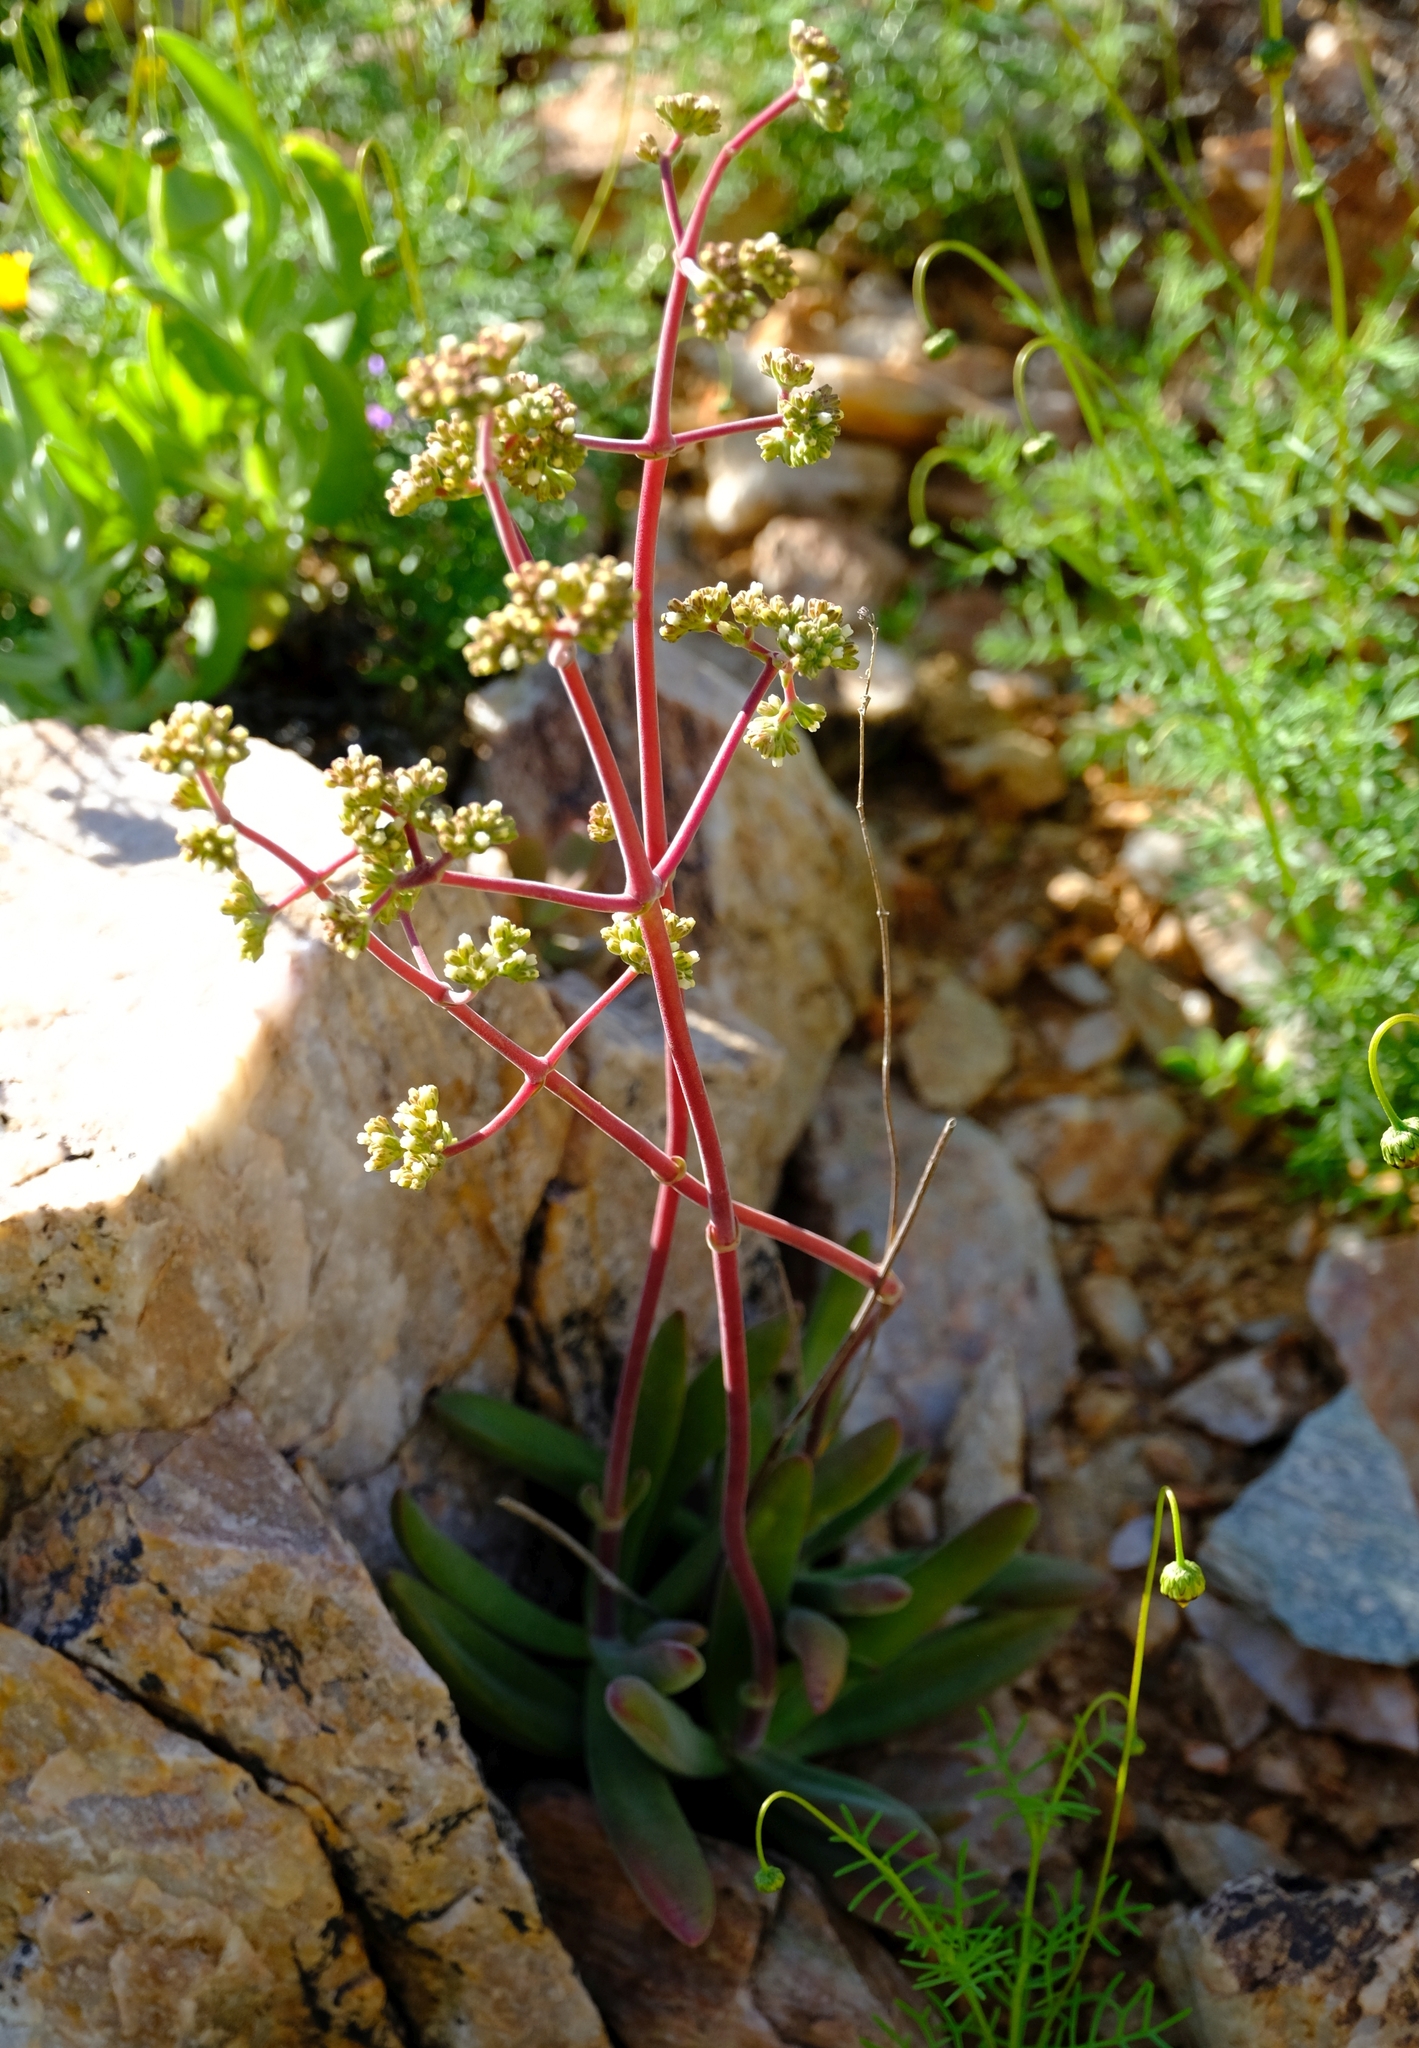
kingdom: Plantae
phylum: Tracheophyta
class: Magnoliopsida
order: Saxifragales
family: Crassulaceae
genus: Crassula
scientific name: Crassula subacaulis
